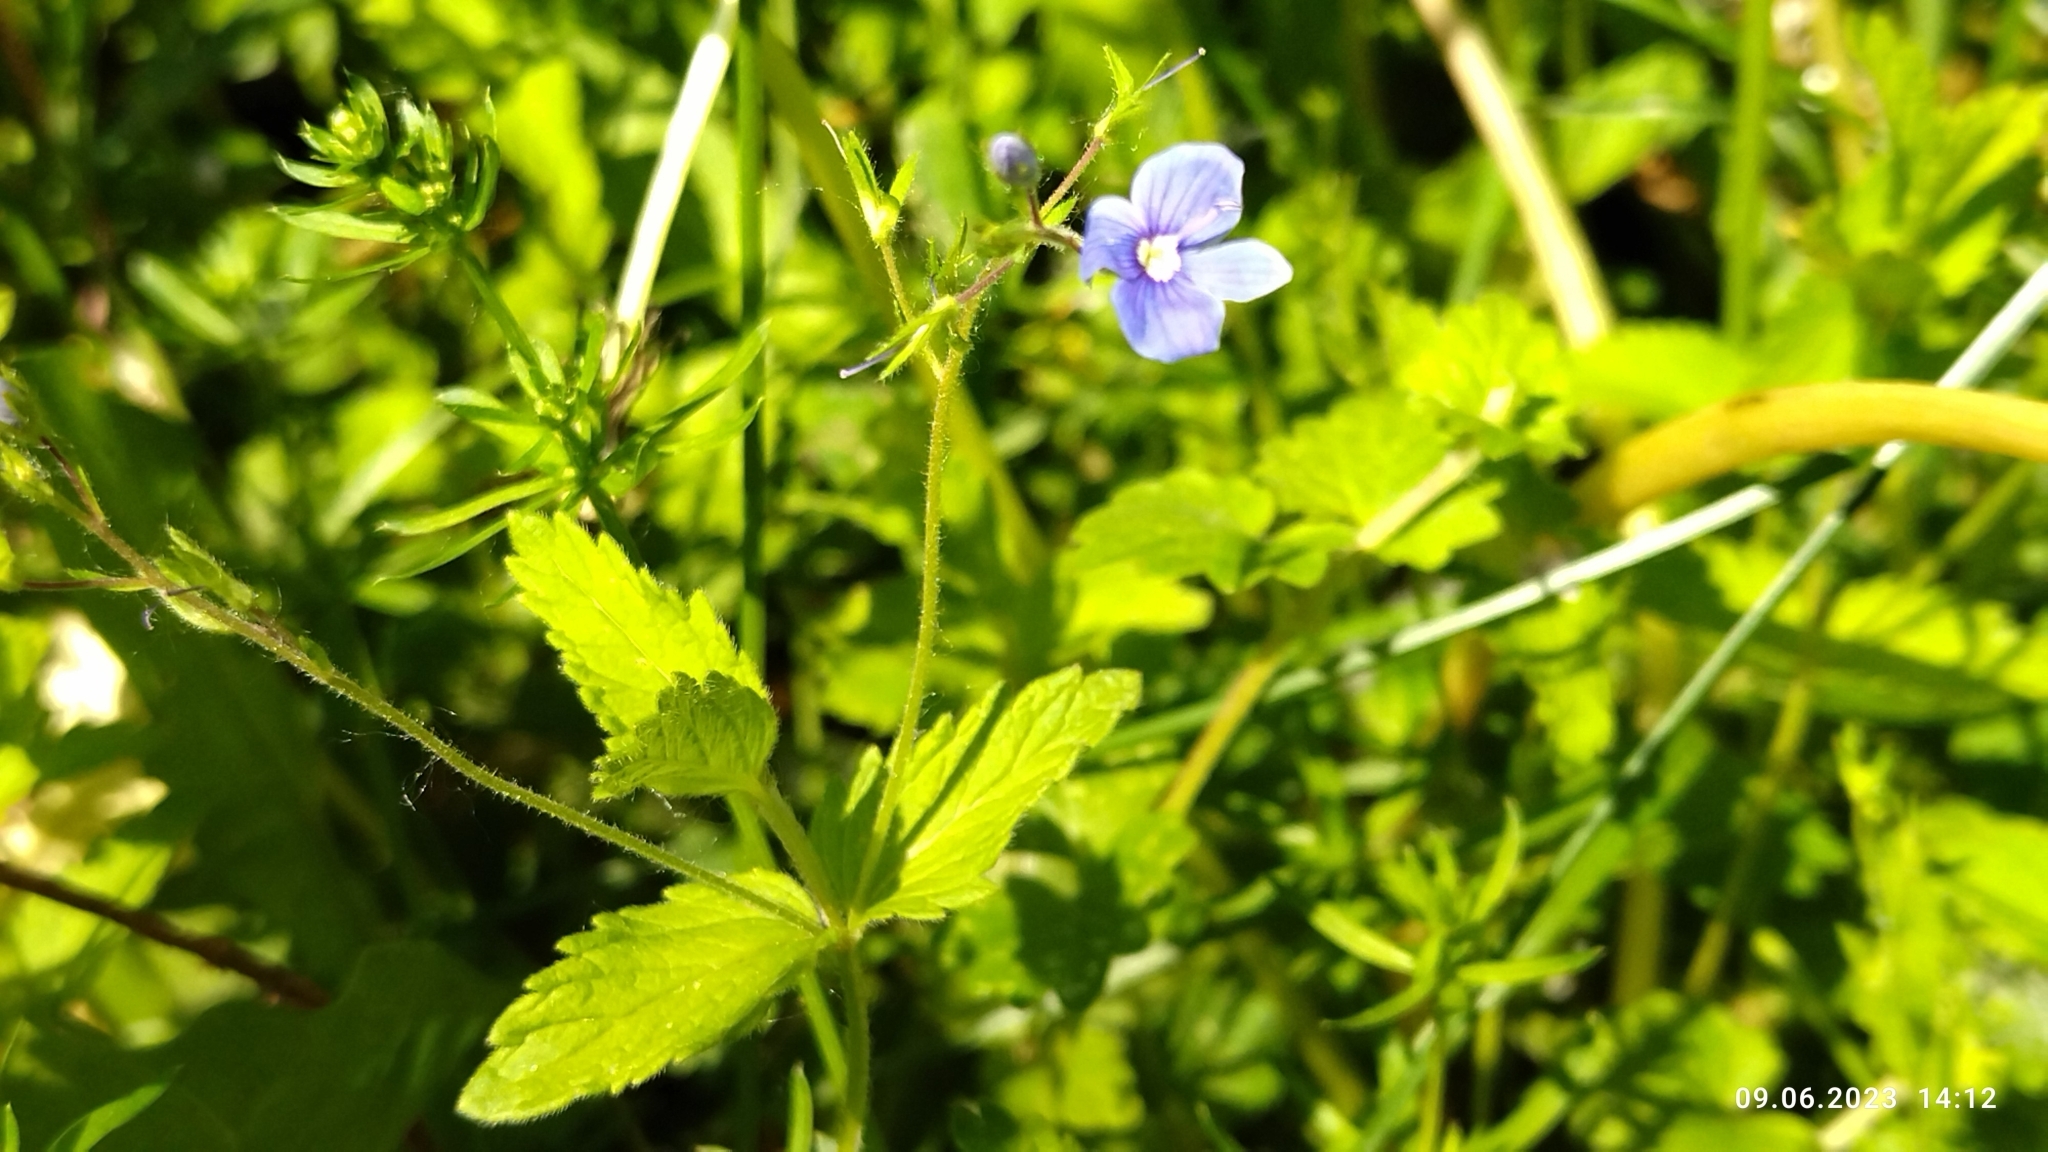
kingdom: Plantae
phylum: Tracheophyta
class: Magnoliopsida
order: Lamiales
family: Plantaginaceae
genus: Veronica
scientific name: Veronica chamaedrys
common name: Germander speedwell
